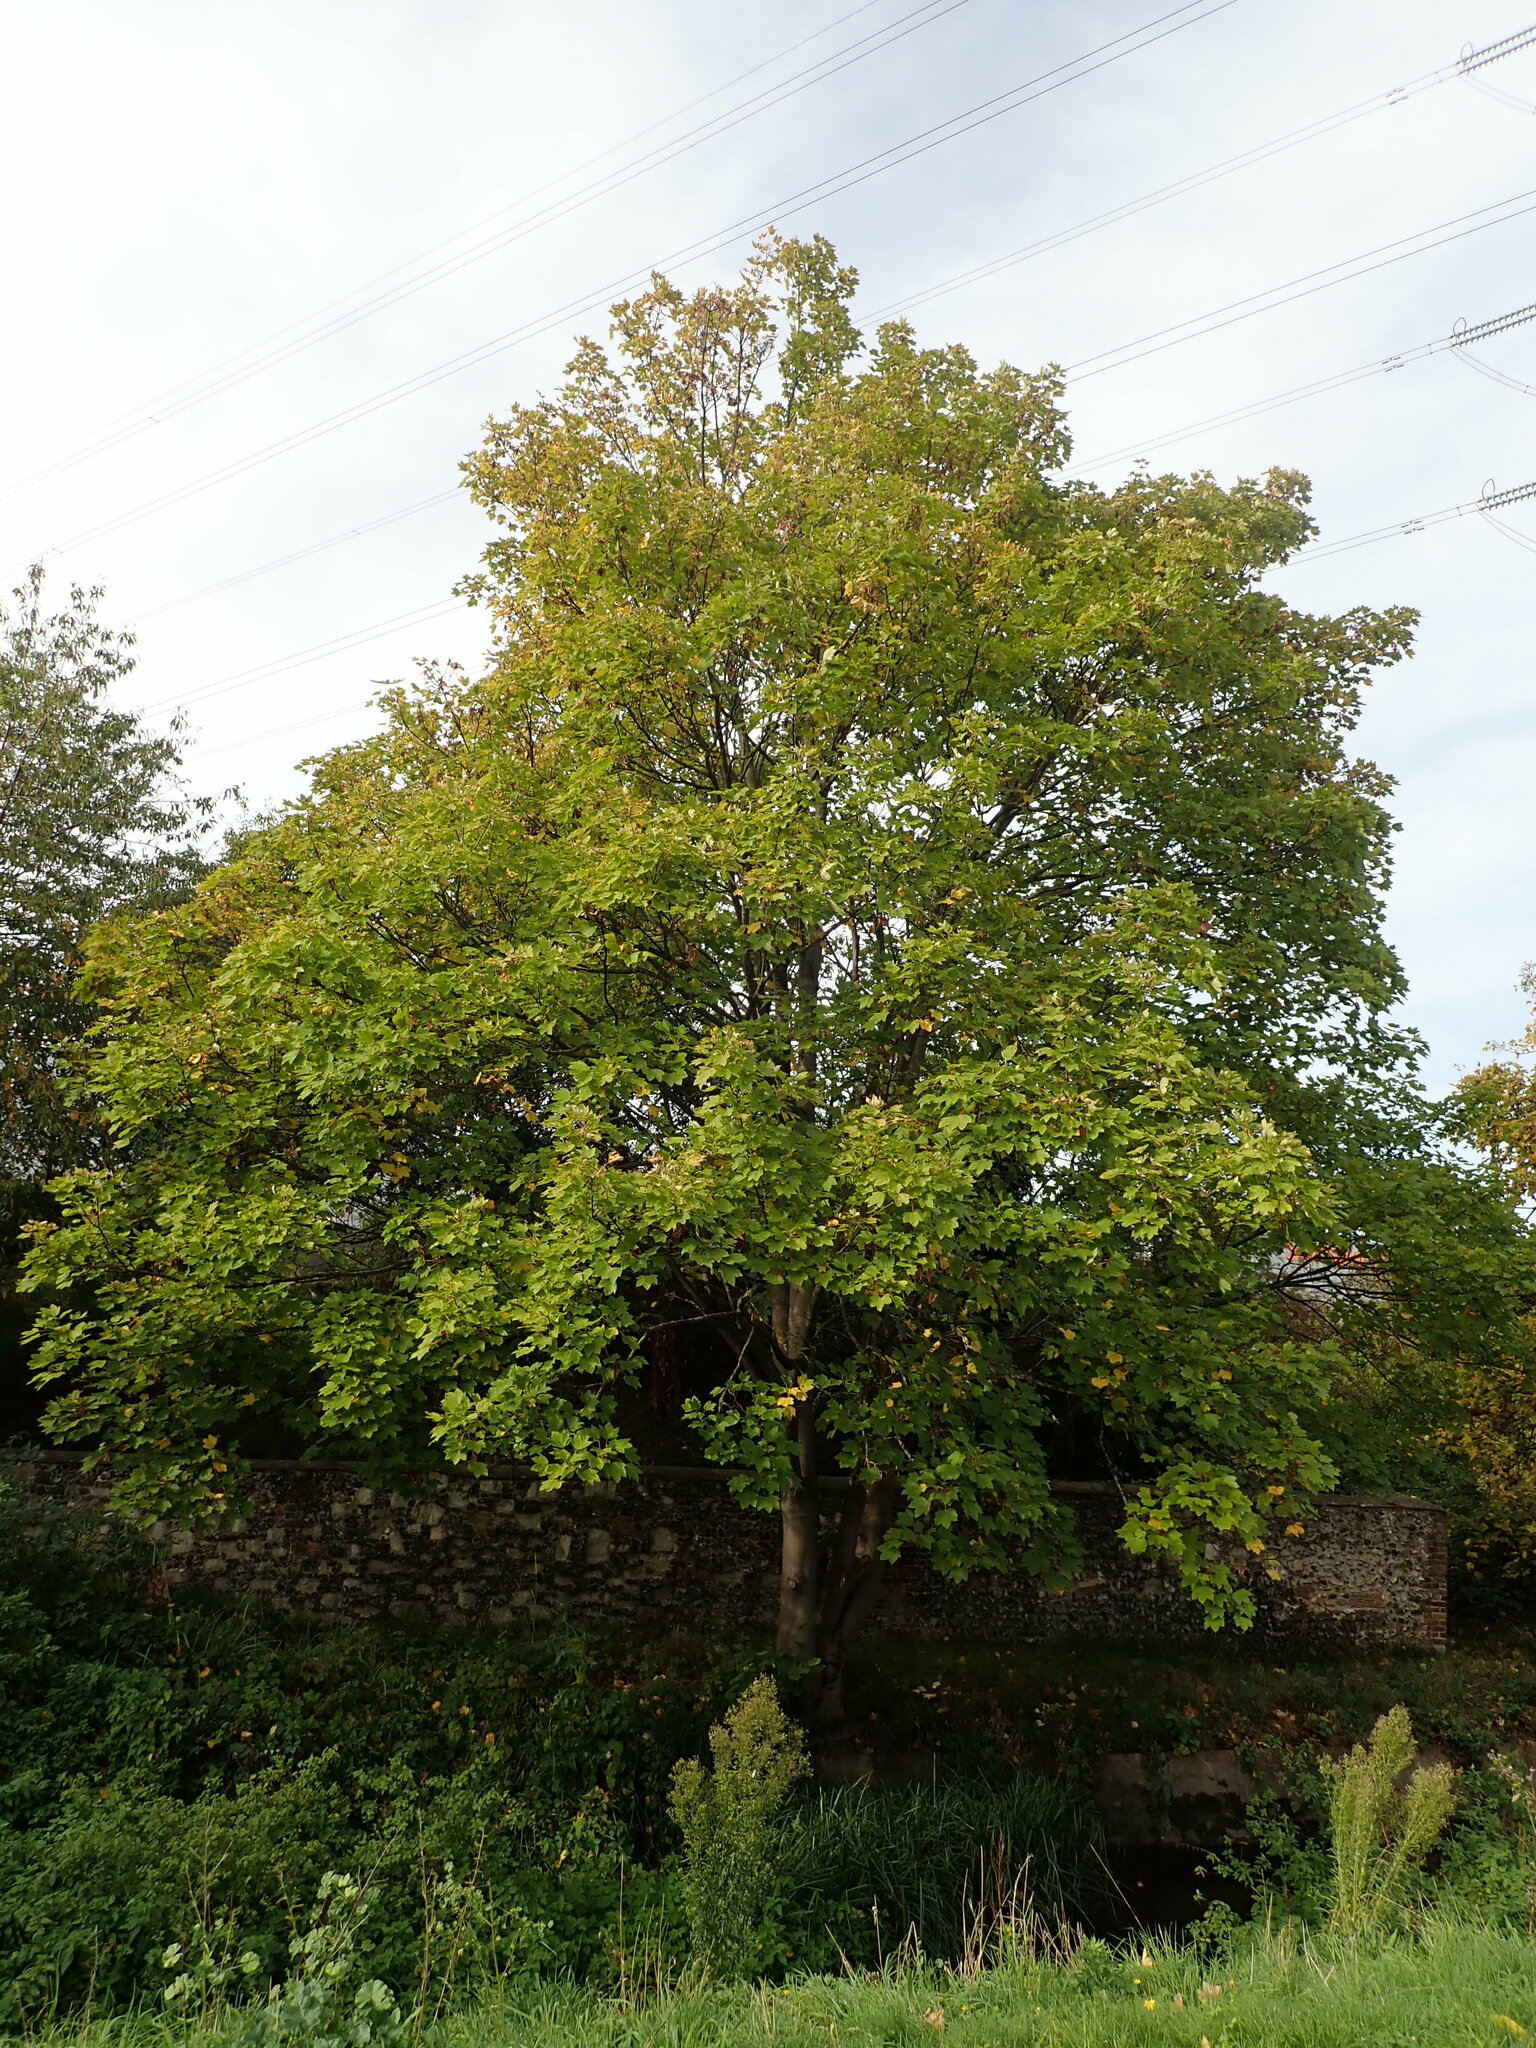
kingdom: Plantae
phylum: Tracheophyta
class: Magnoliopsida
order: Sapindales
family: Sapindaceae
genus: Acer
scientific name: Acer pseudoplatanus
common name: Sycamore
